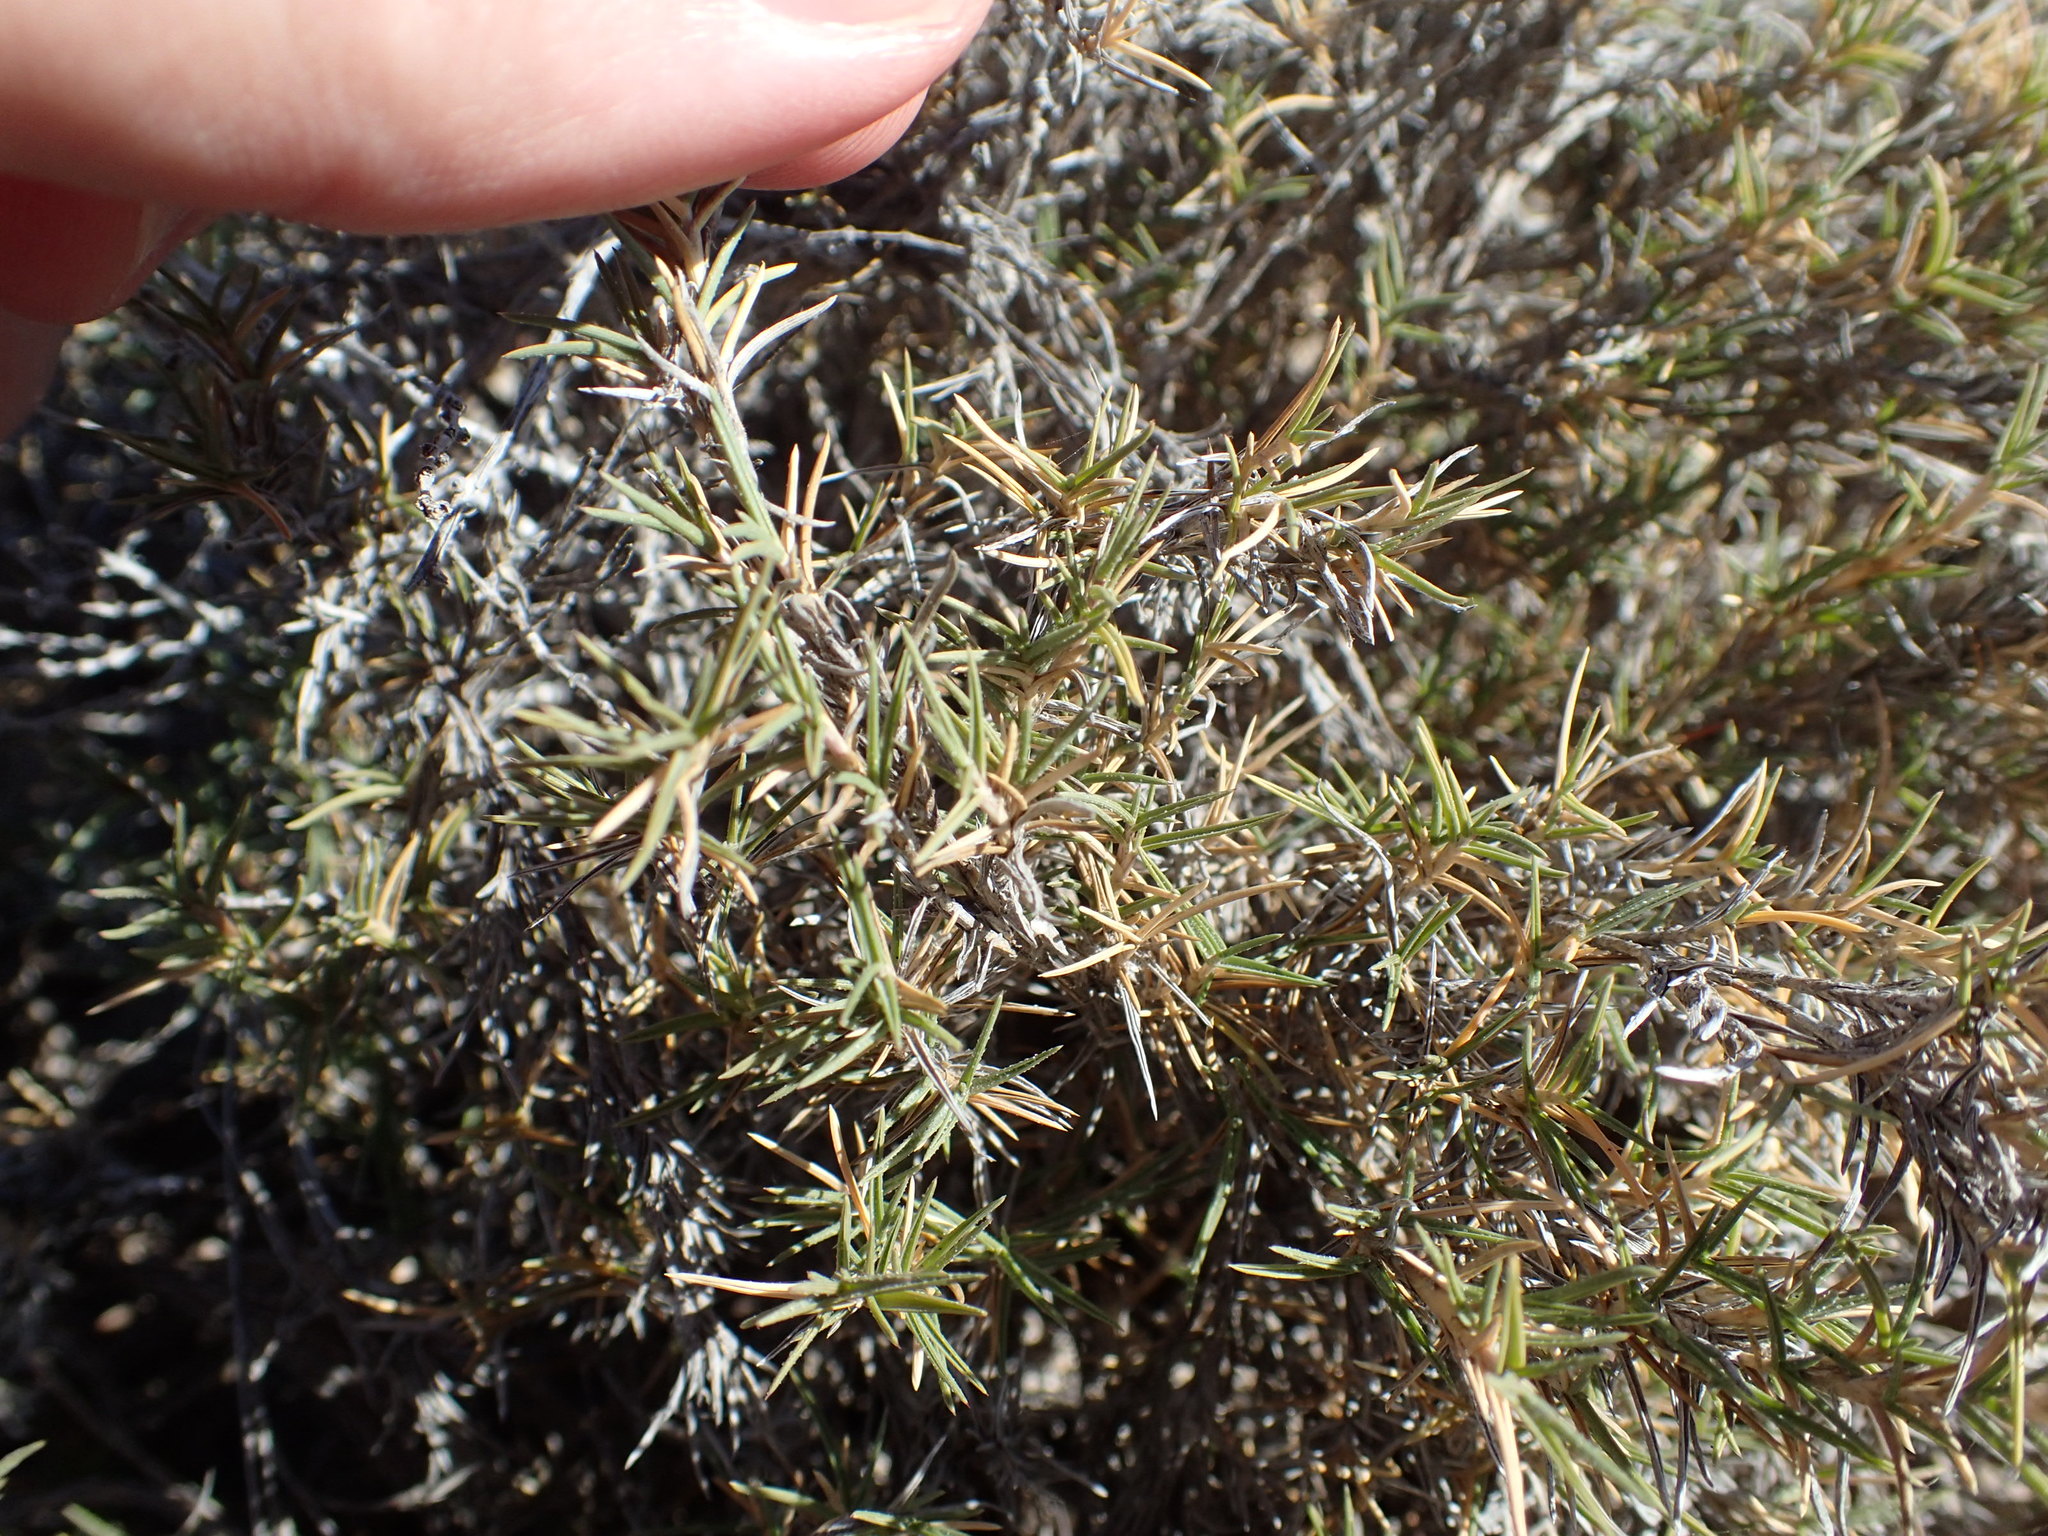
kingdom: Plantae
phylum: Tracheophyta
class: Liliopsida
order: Poales
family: Poaceae
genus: Distichlis
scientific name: Distichlis littoralis
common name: Shore grass
